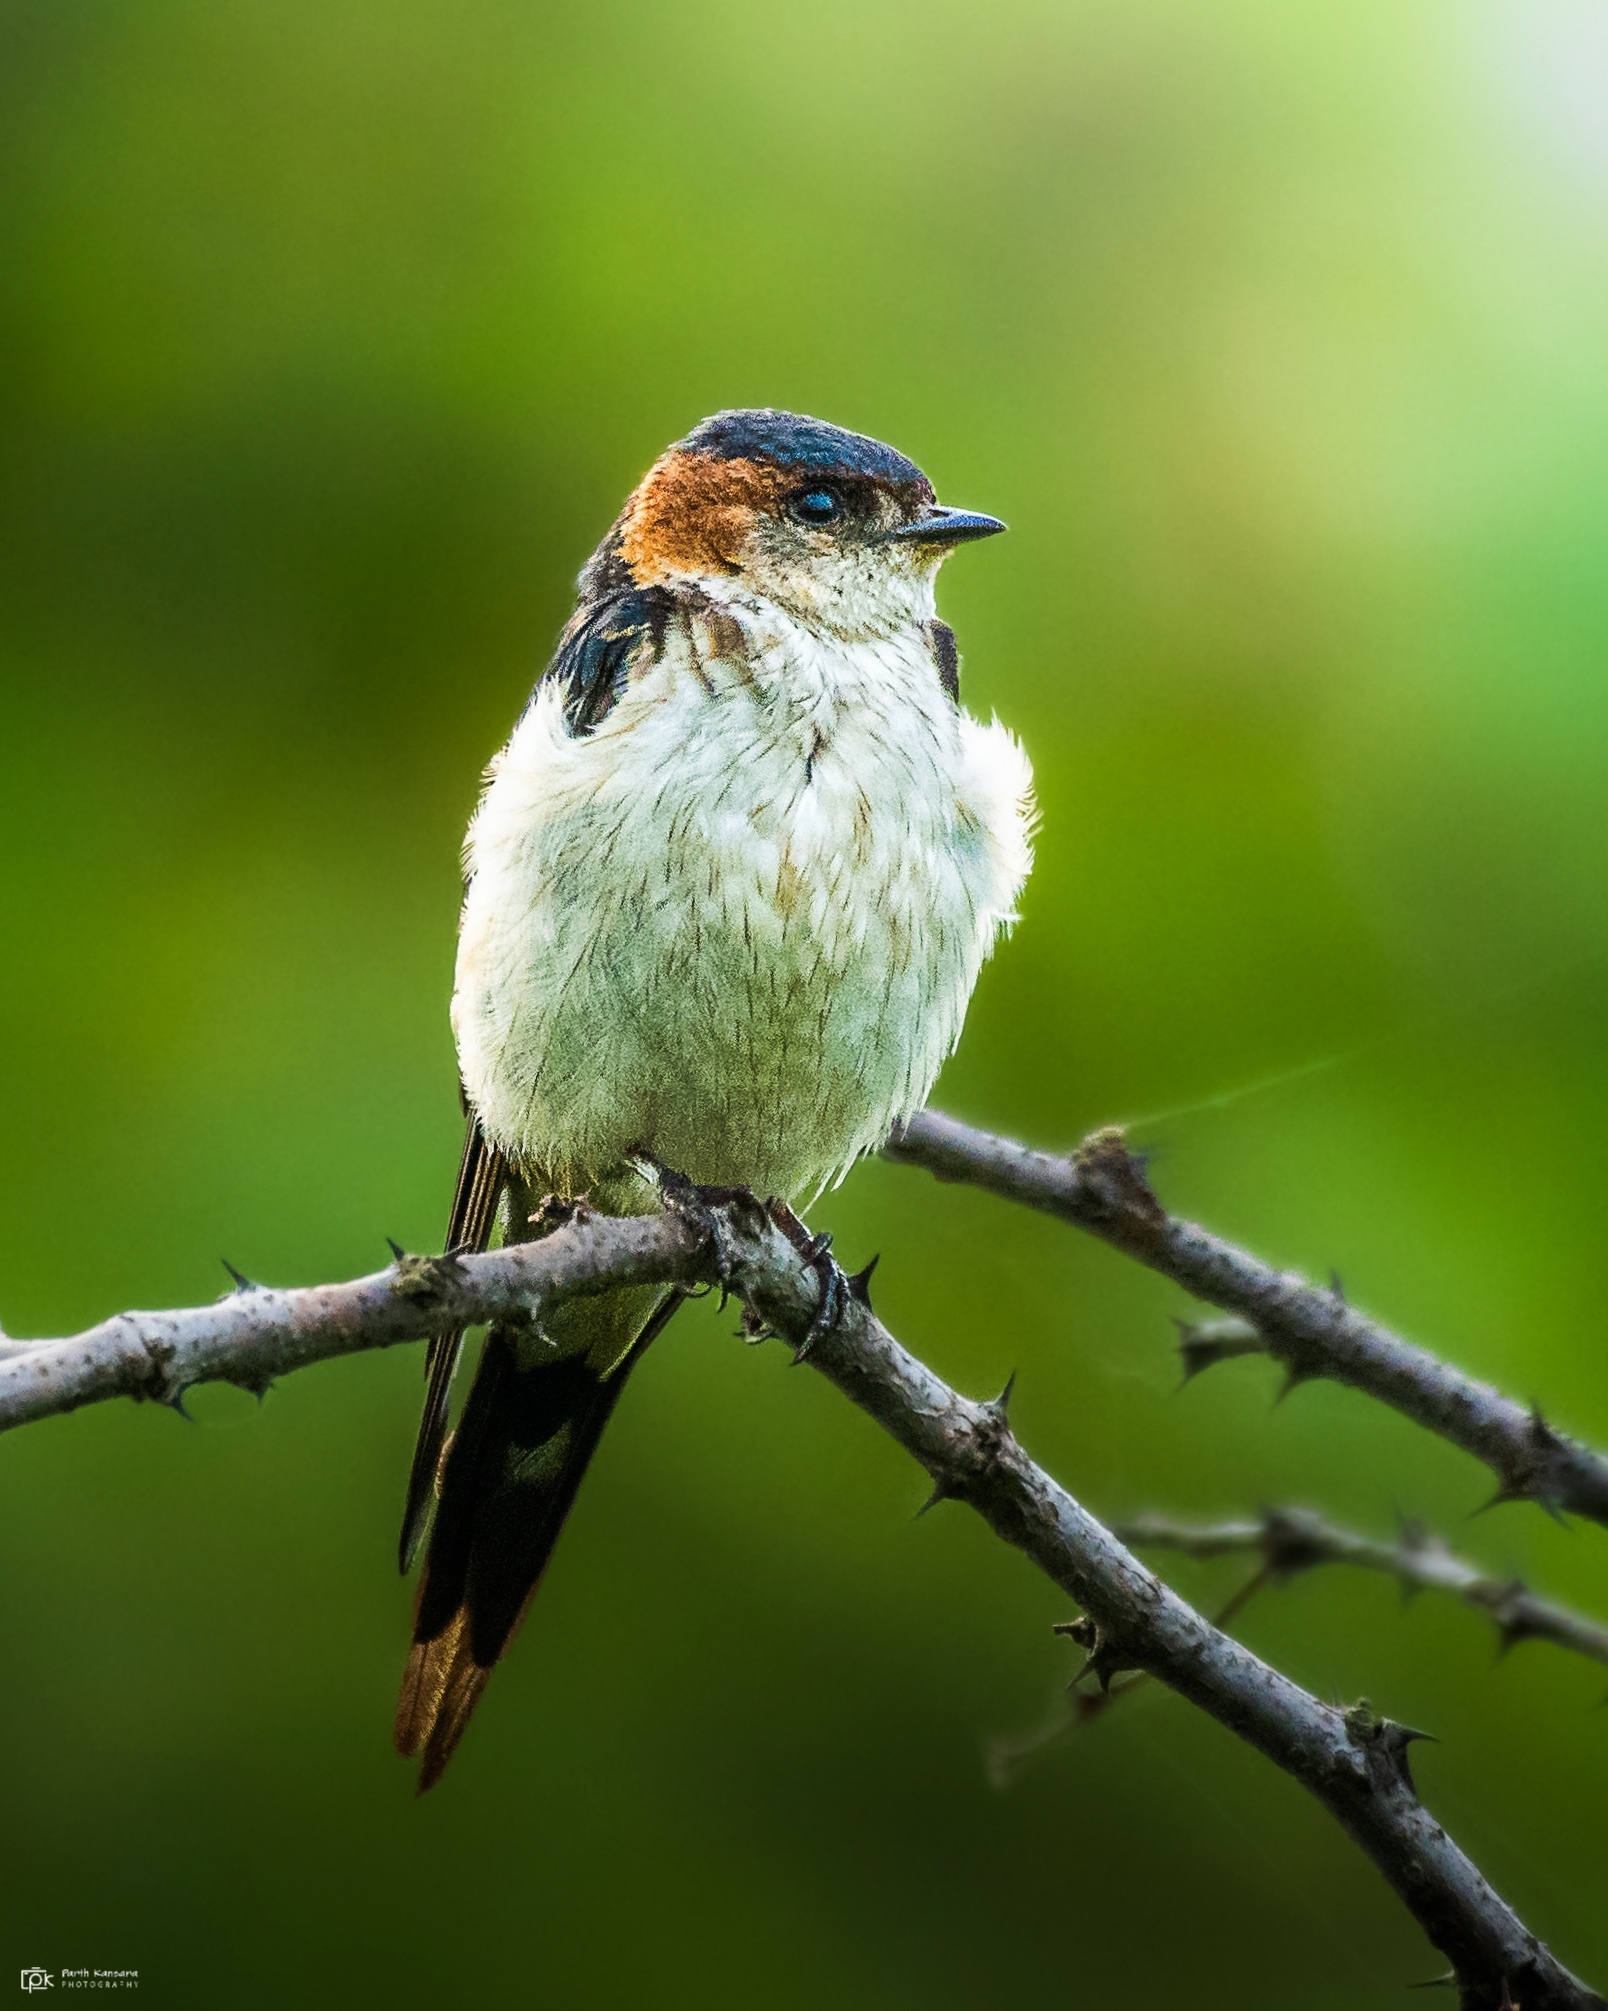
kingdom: Animalia
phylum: Chordata
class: Aves
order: Passeriformes
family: Hirundinidae
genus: Cecropis
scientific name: Cecropis daurica
